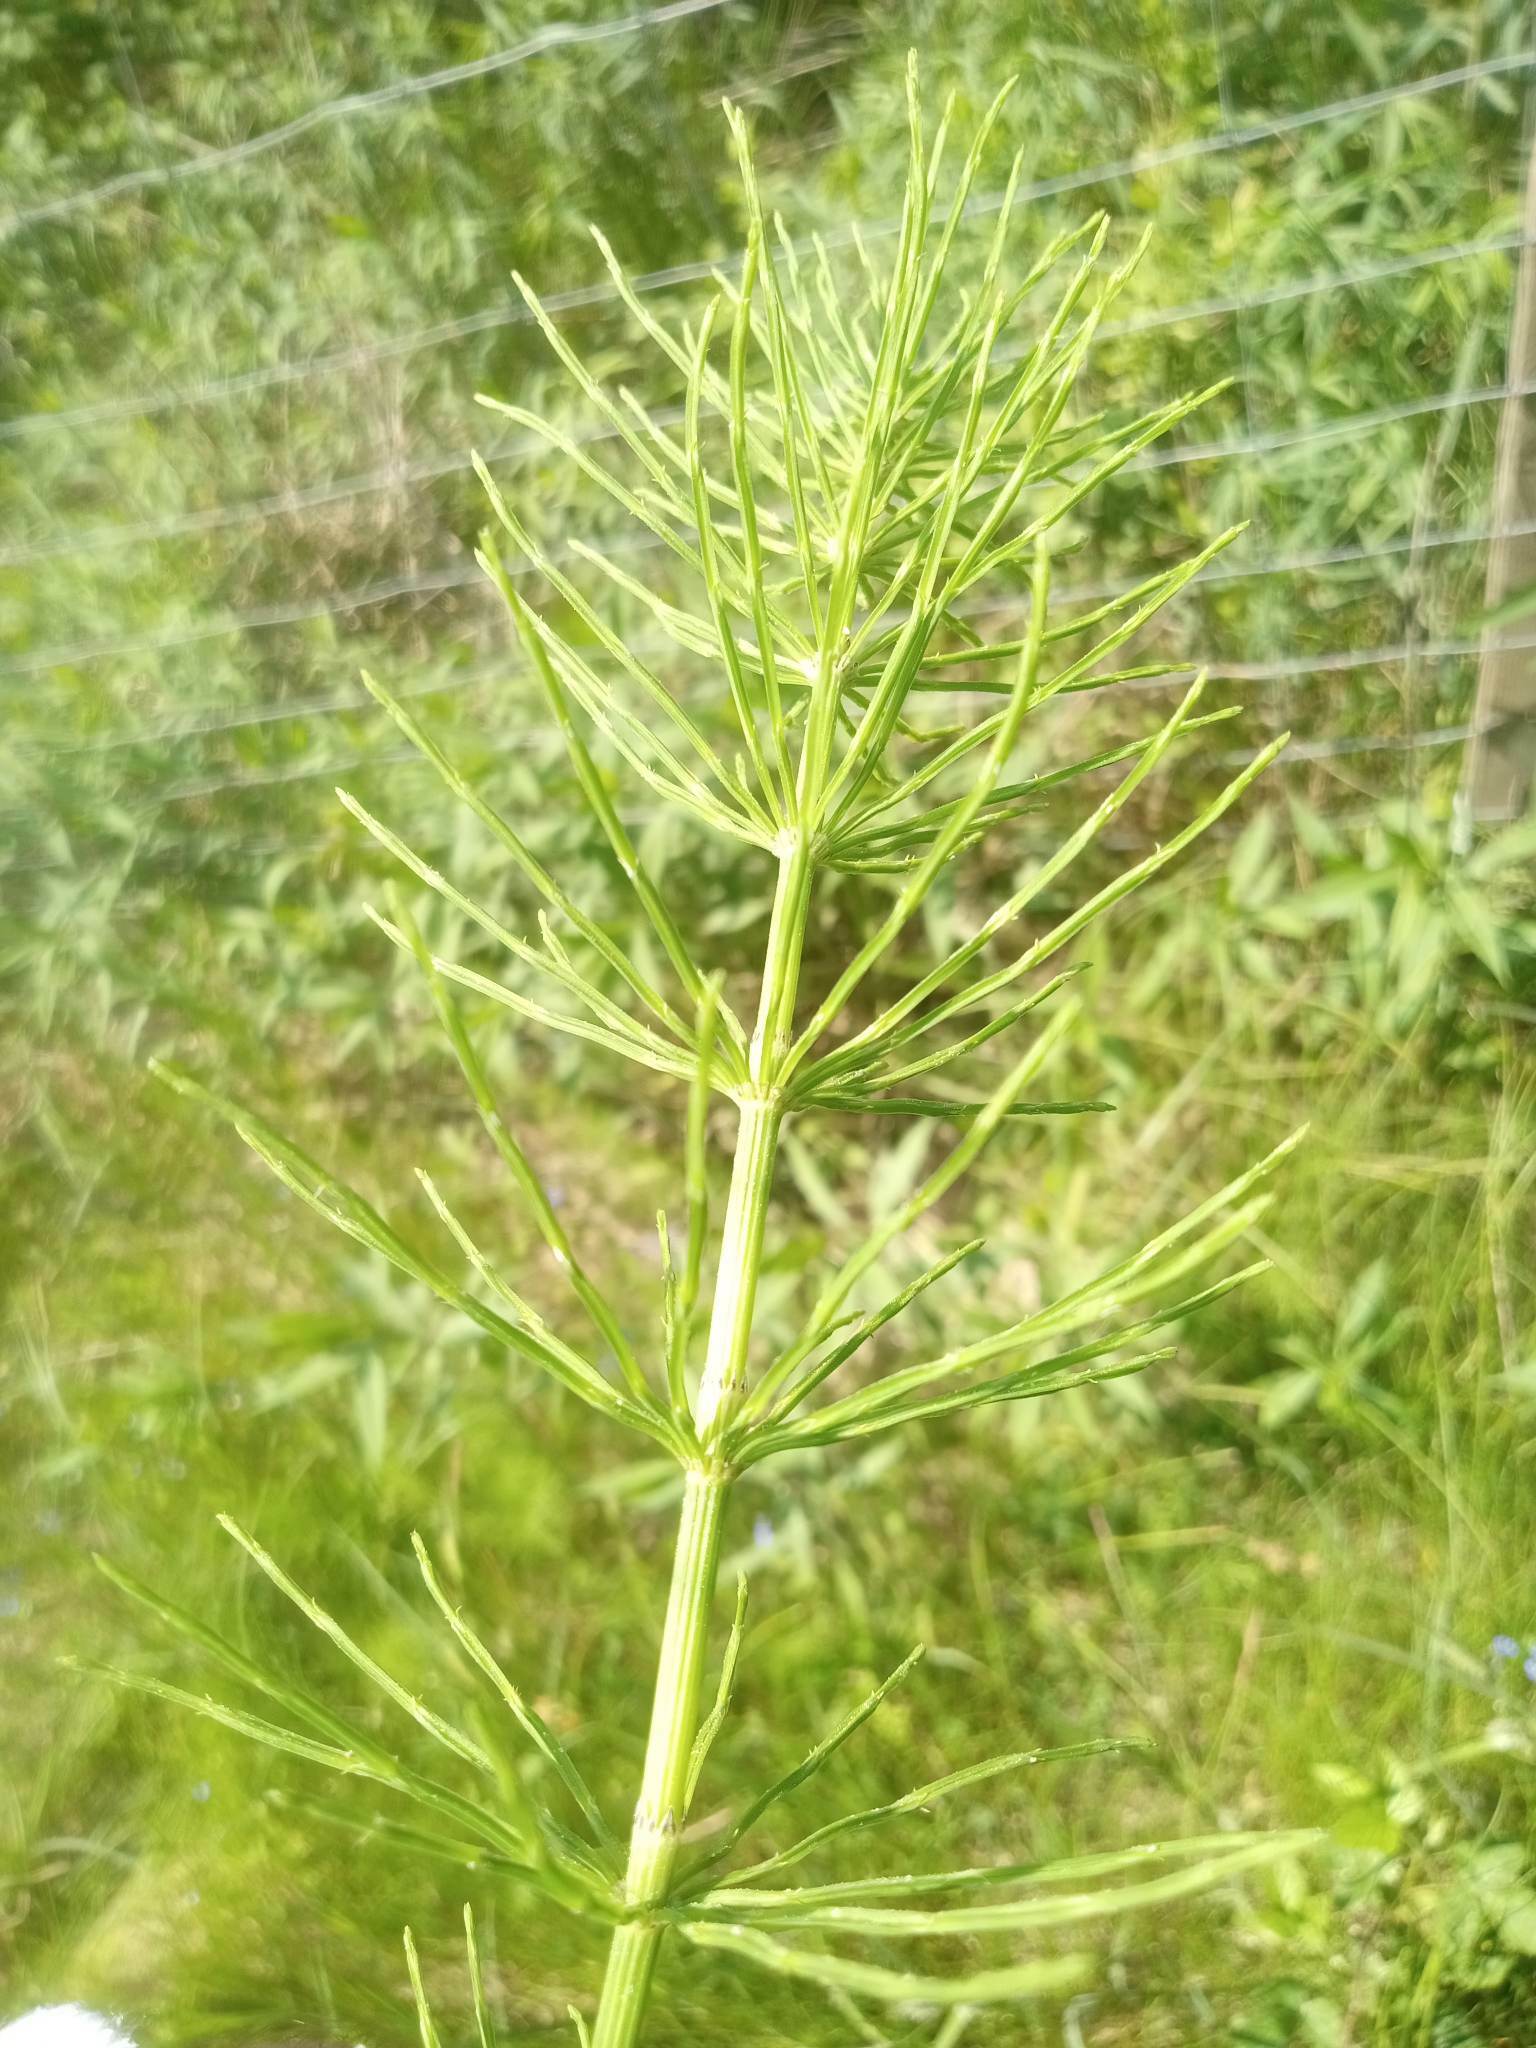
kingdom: Plantae
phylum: Tracheophyta
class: Polypodiopsida
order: Equisetales
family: Equisetaceae
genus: Equisetum
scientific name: Equisetum arvense
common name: Field horsetail
